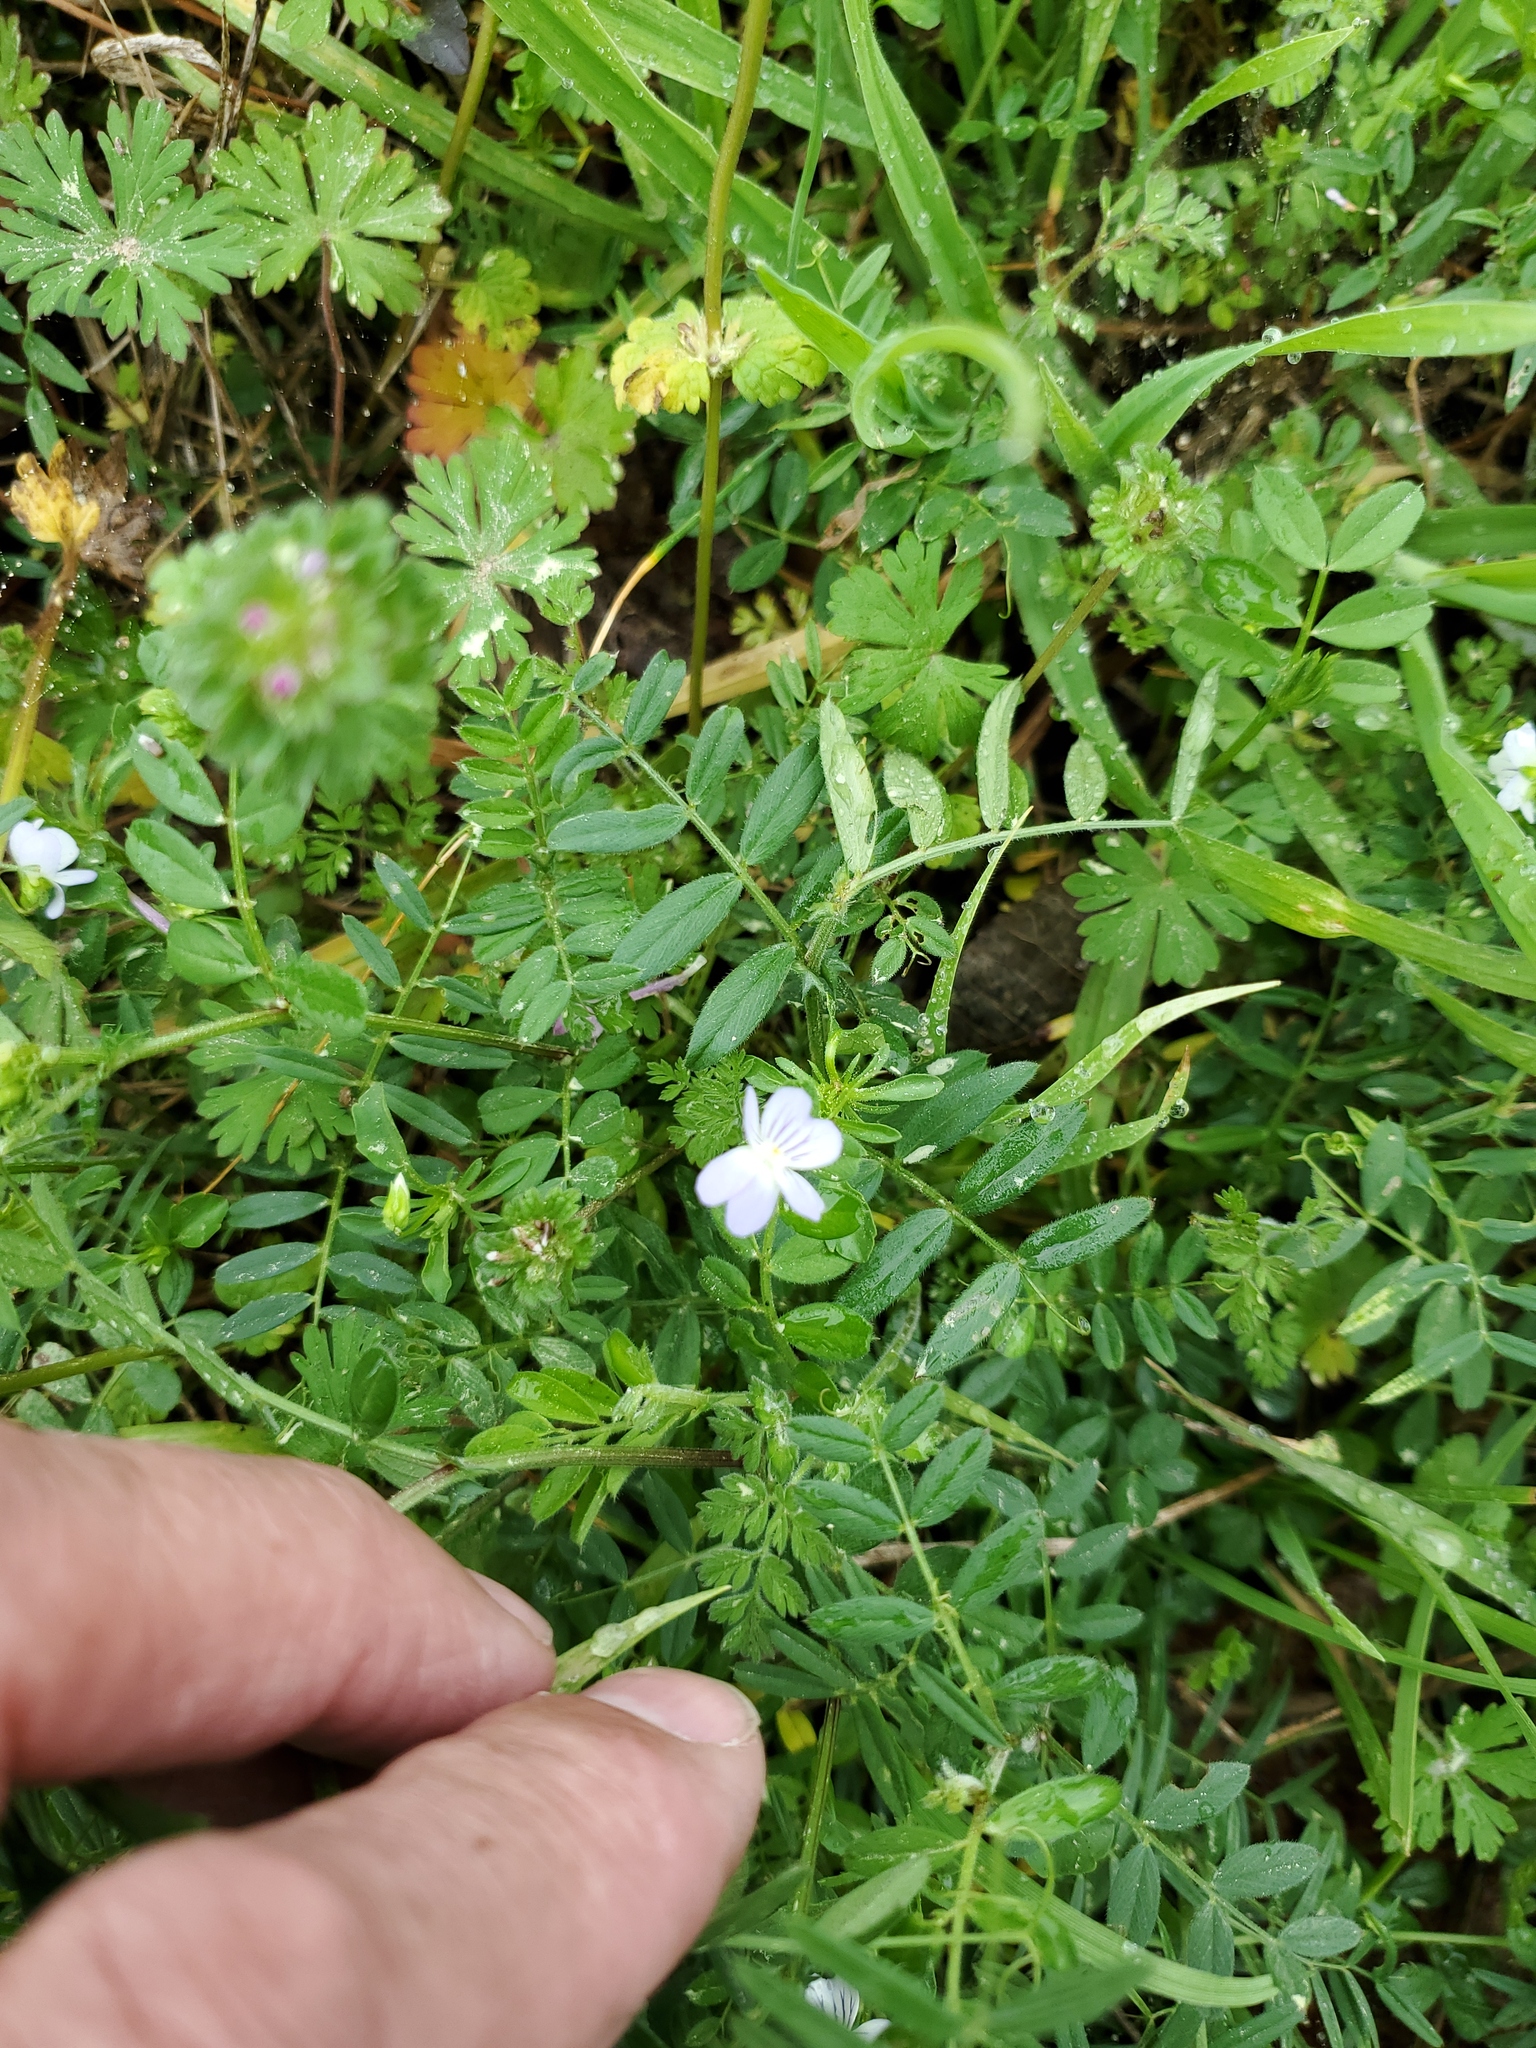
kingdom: Plantae
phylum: Tracheophyta
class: Magnoliopsida
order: Malpighiales
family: Violaceae
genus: Viola
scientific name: Viola rafinesquei
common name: American field pansy
